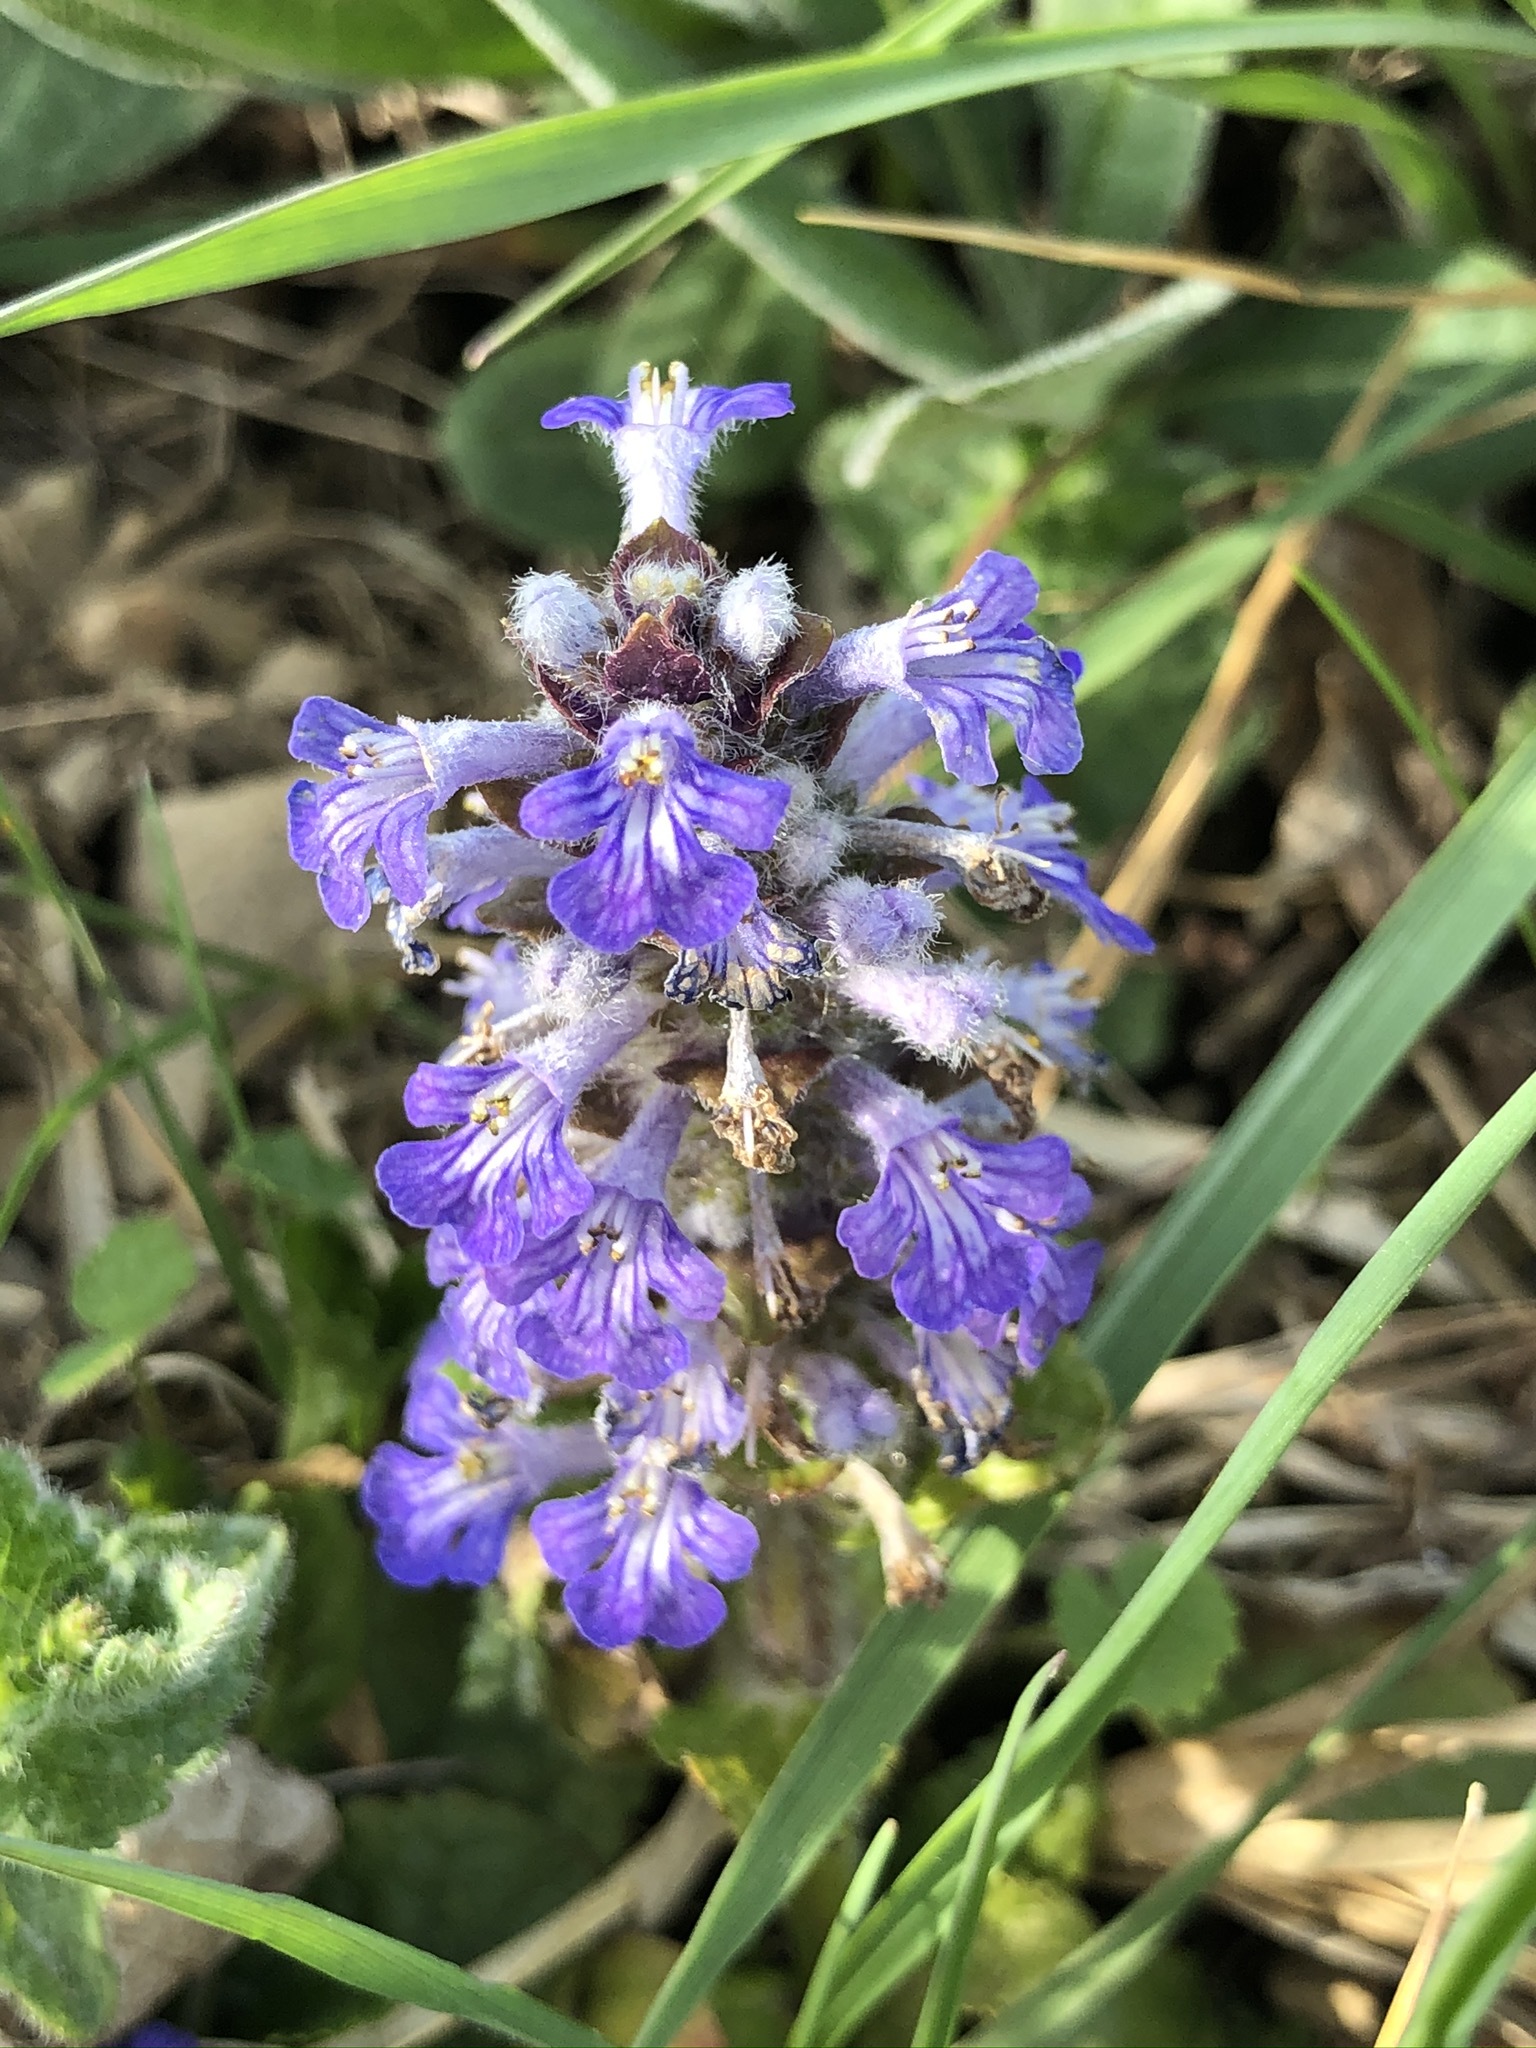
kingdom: Plantae
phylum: Tracheophyta
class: Magnoliopsida
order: Lamiales
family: Lamiaceae
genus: Ajuga
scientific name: Ajuga reptans
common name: Bugle
